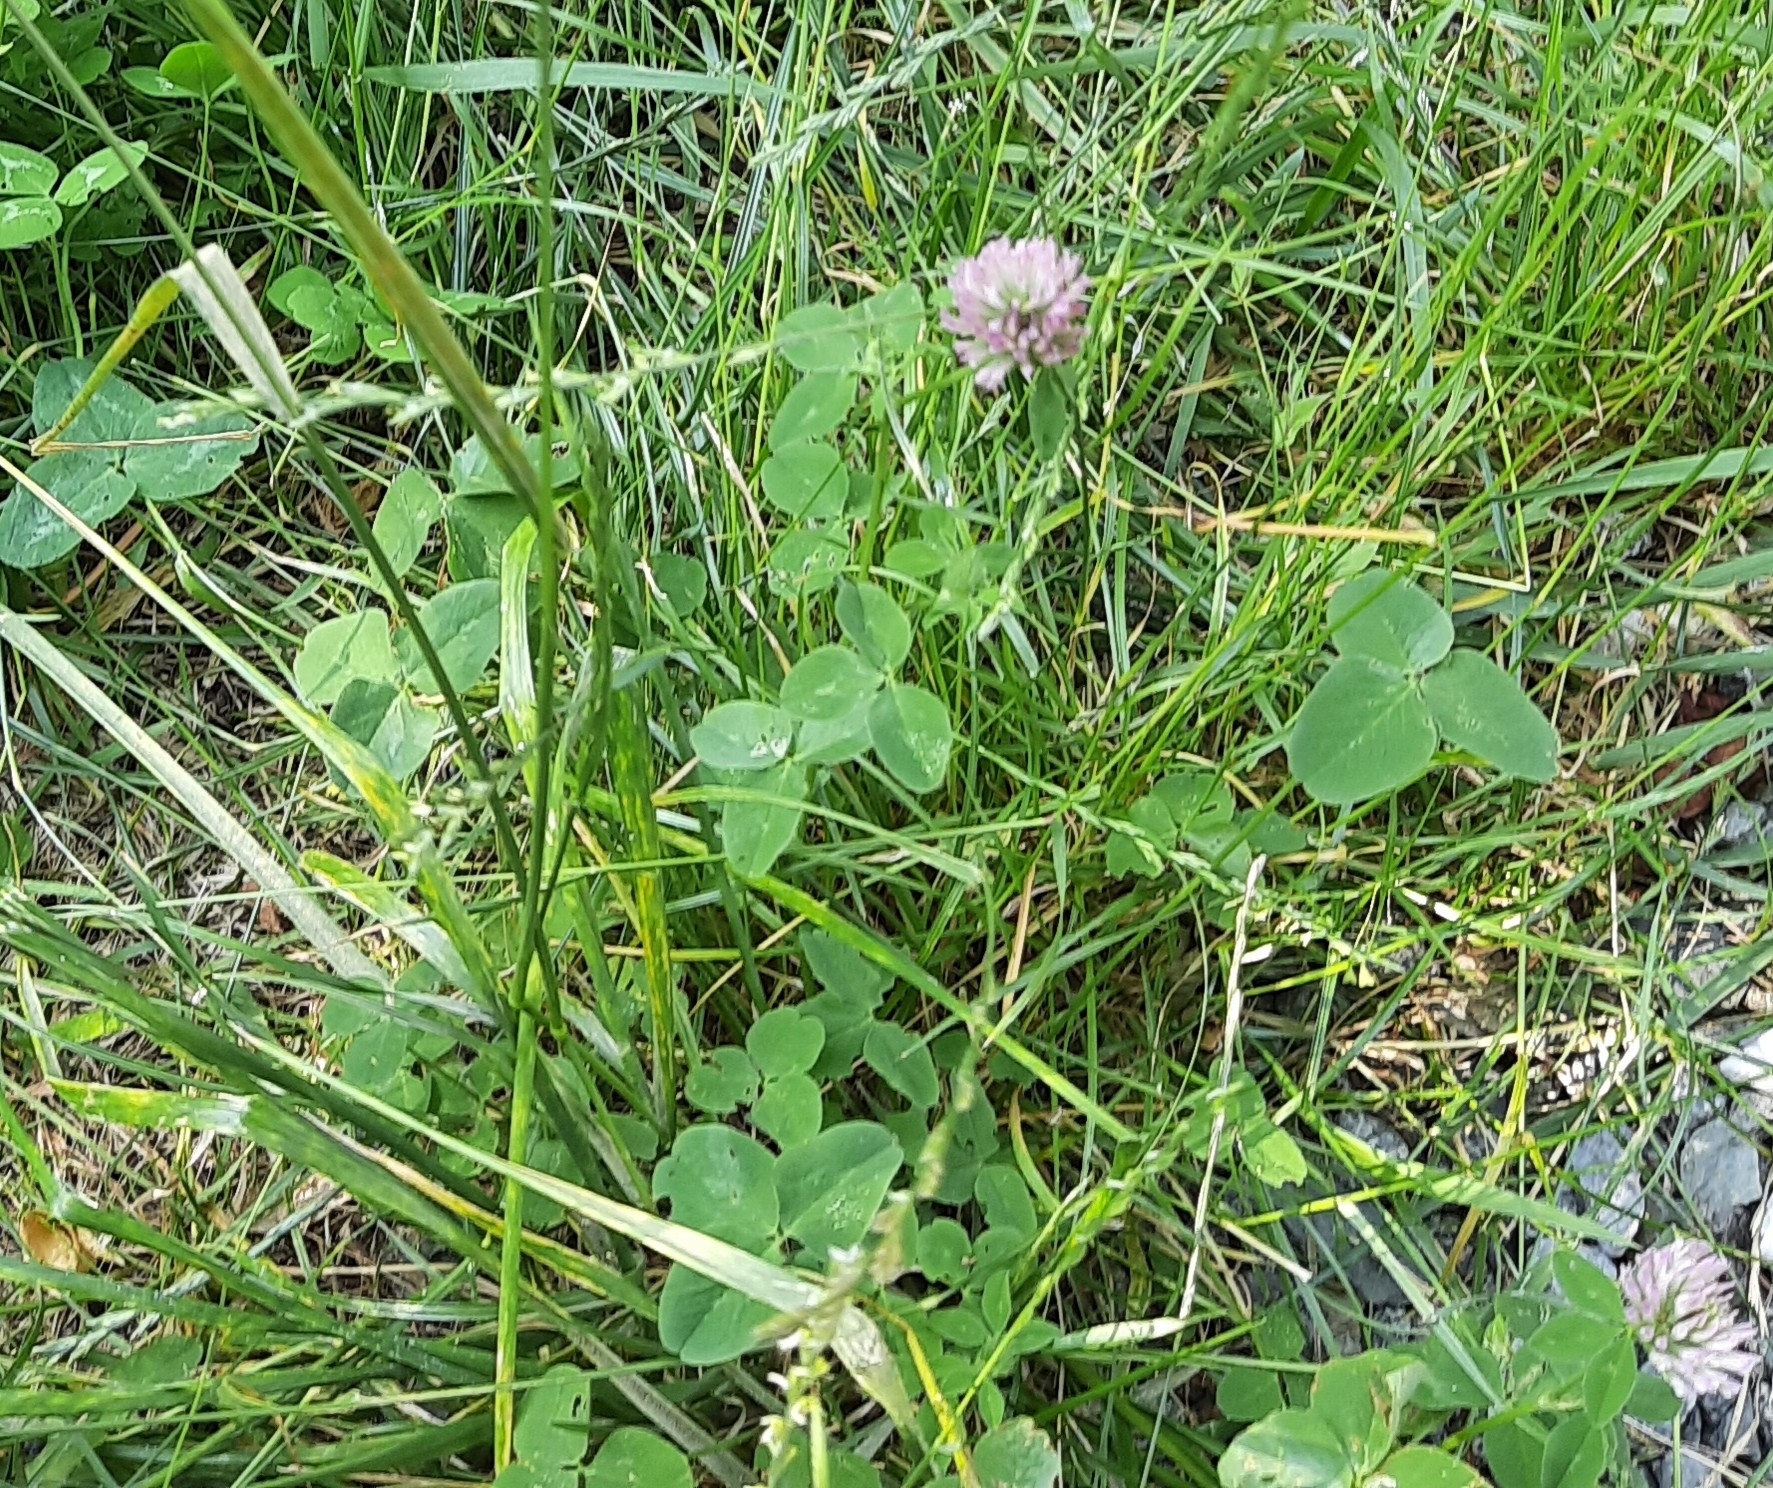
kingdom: Plantae
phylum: Tracheophyta
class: Magnoliopsida
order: Fabales
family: Fabaceae
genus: Trifolium
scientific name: Trifolium pratense
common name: Red clover
